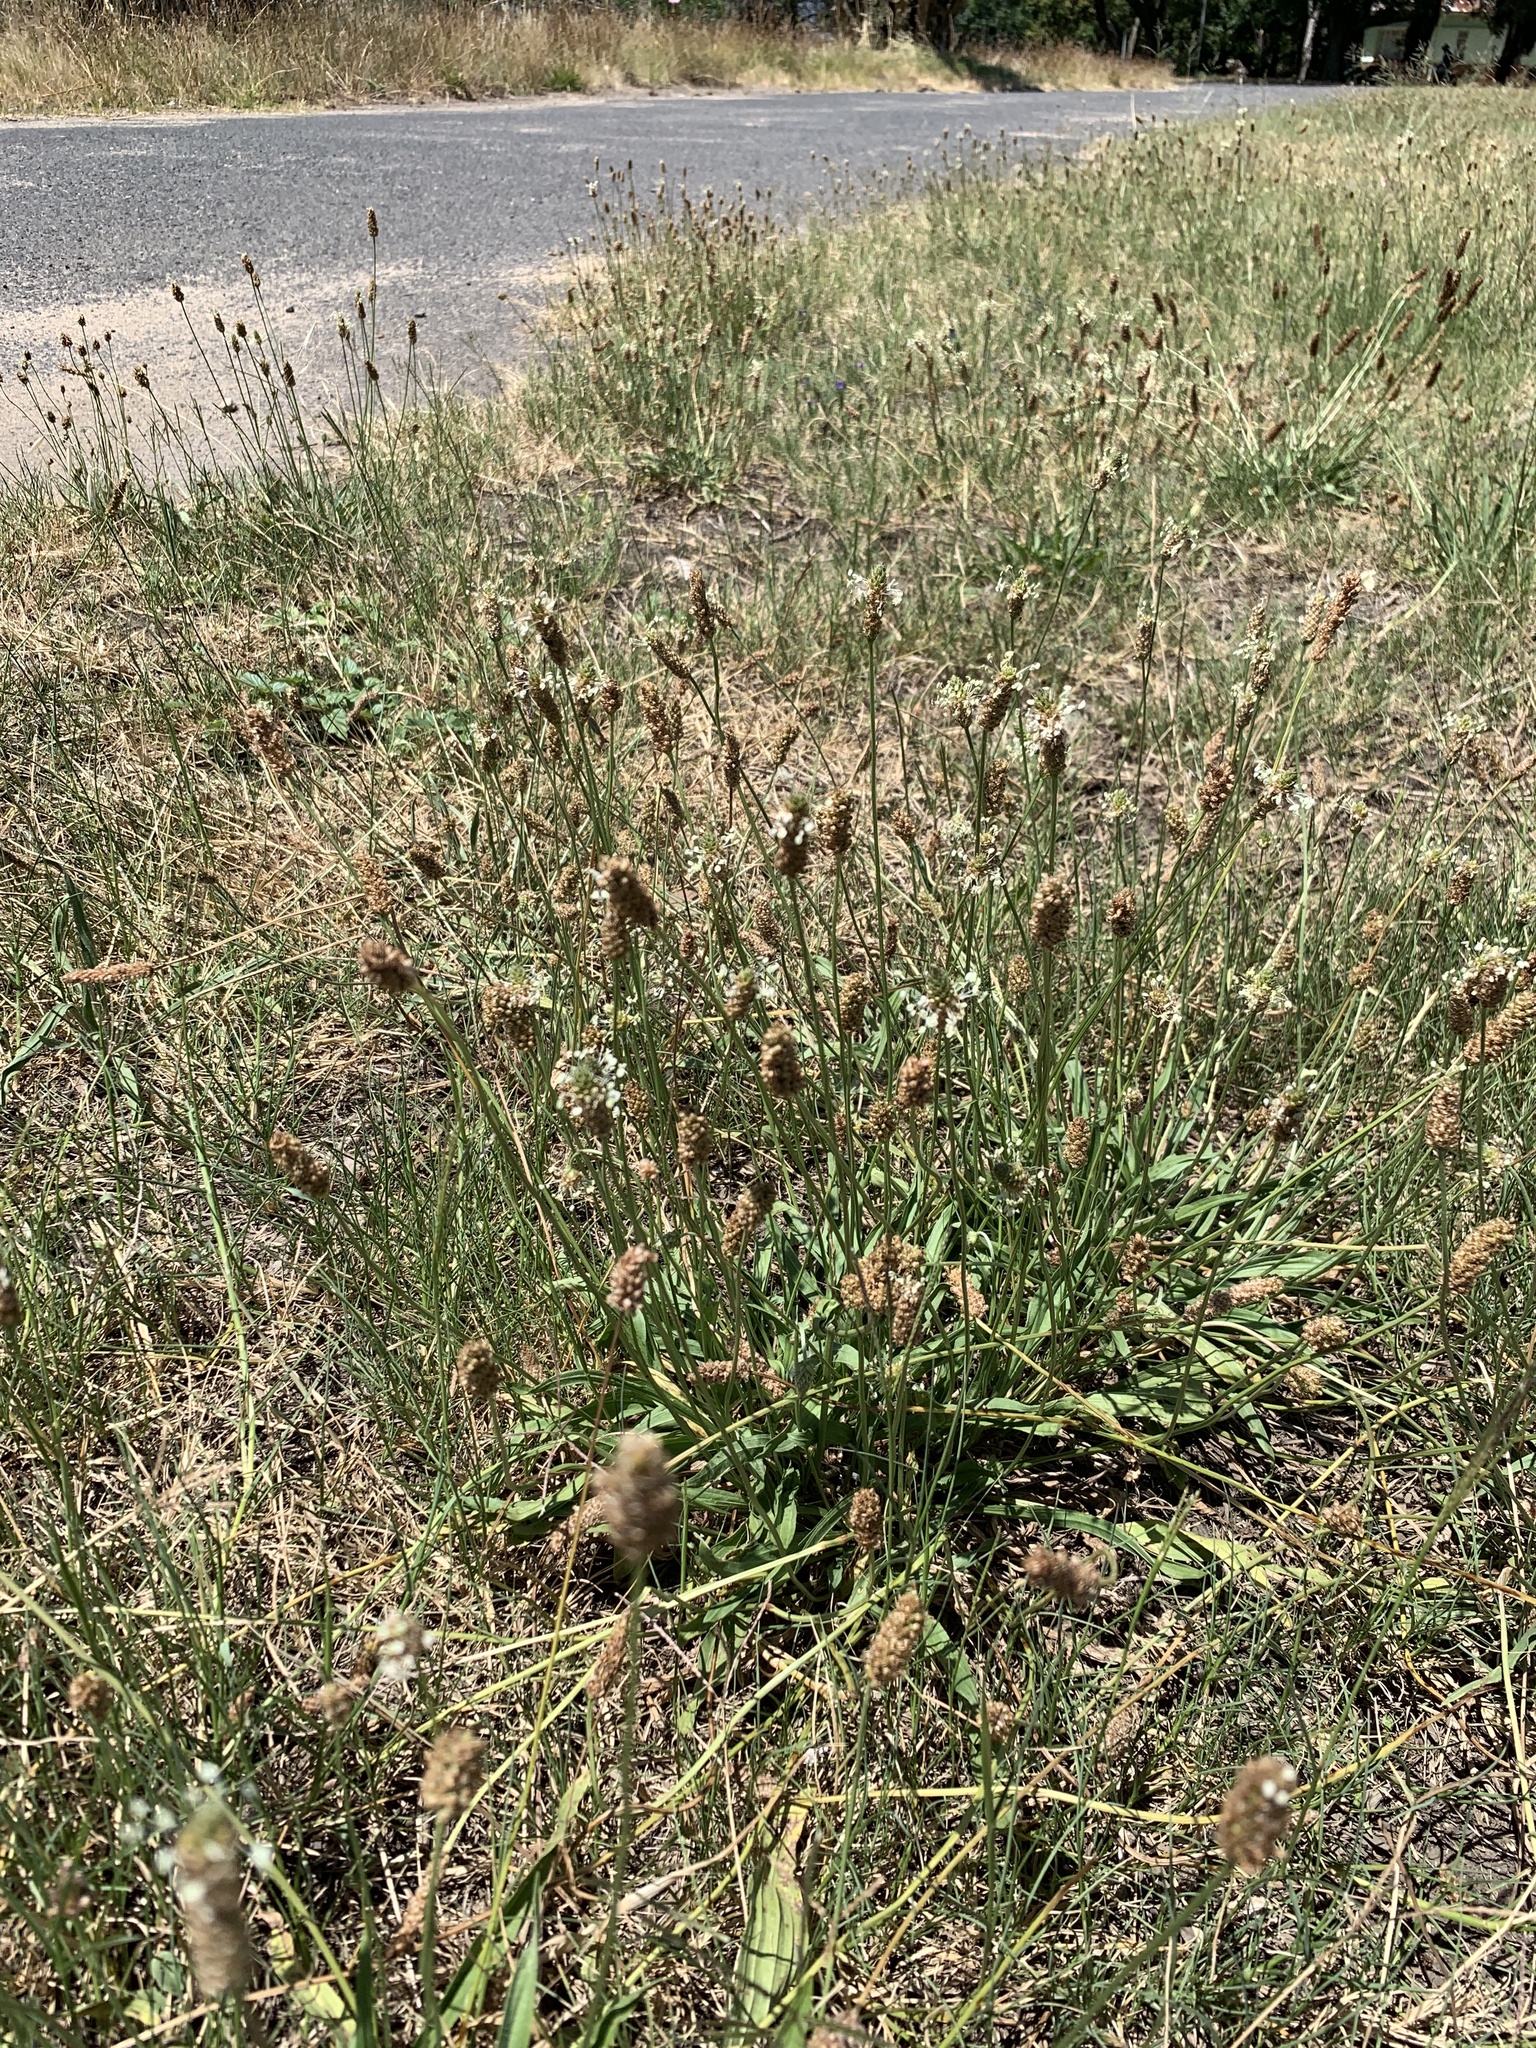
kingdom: Plantae
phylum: Tracheophyta
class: Magnoliopsida
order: Lamiales
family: Plantaginaceae
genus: Plantago
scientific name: Plantago lanceolata
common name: Ribwort plantain
